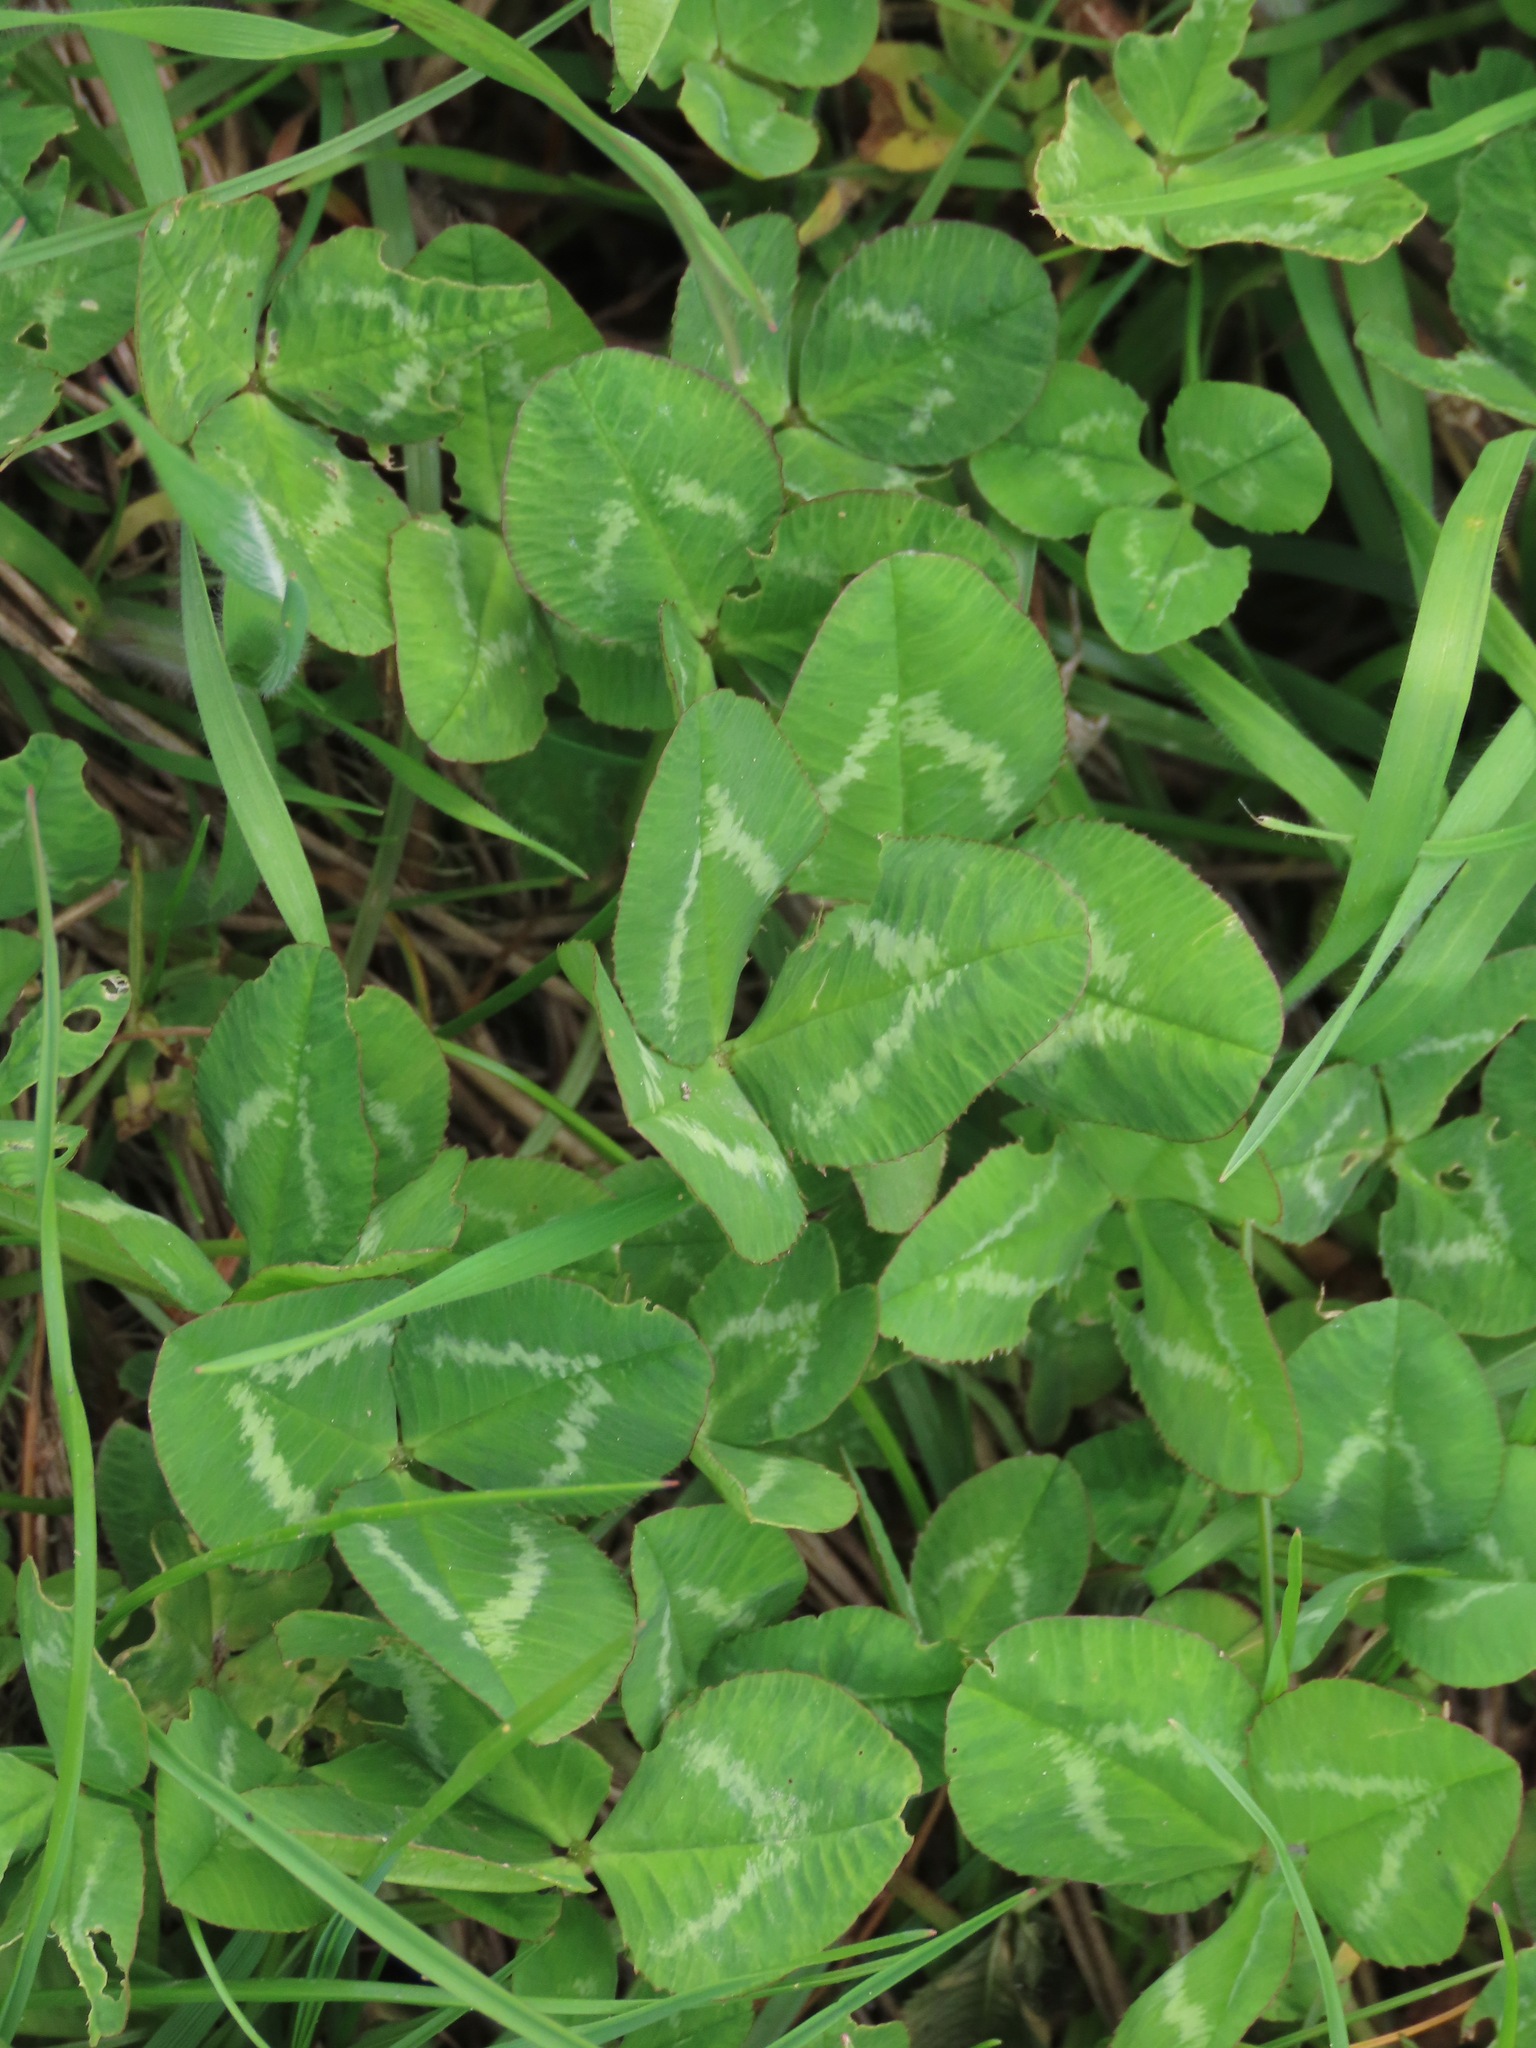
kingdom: Plantae
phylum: Tracheophyta
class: Magnoliopsida
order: Fabales
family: Fabaceae
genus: Trifolium
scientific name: Trifolium repens
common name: White clover
